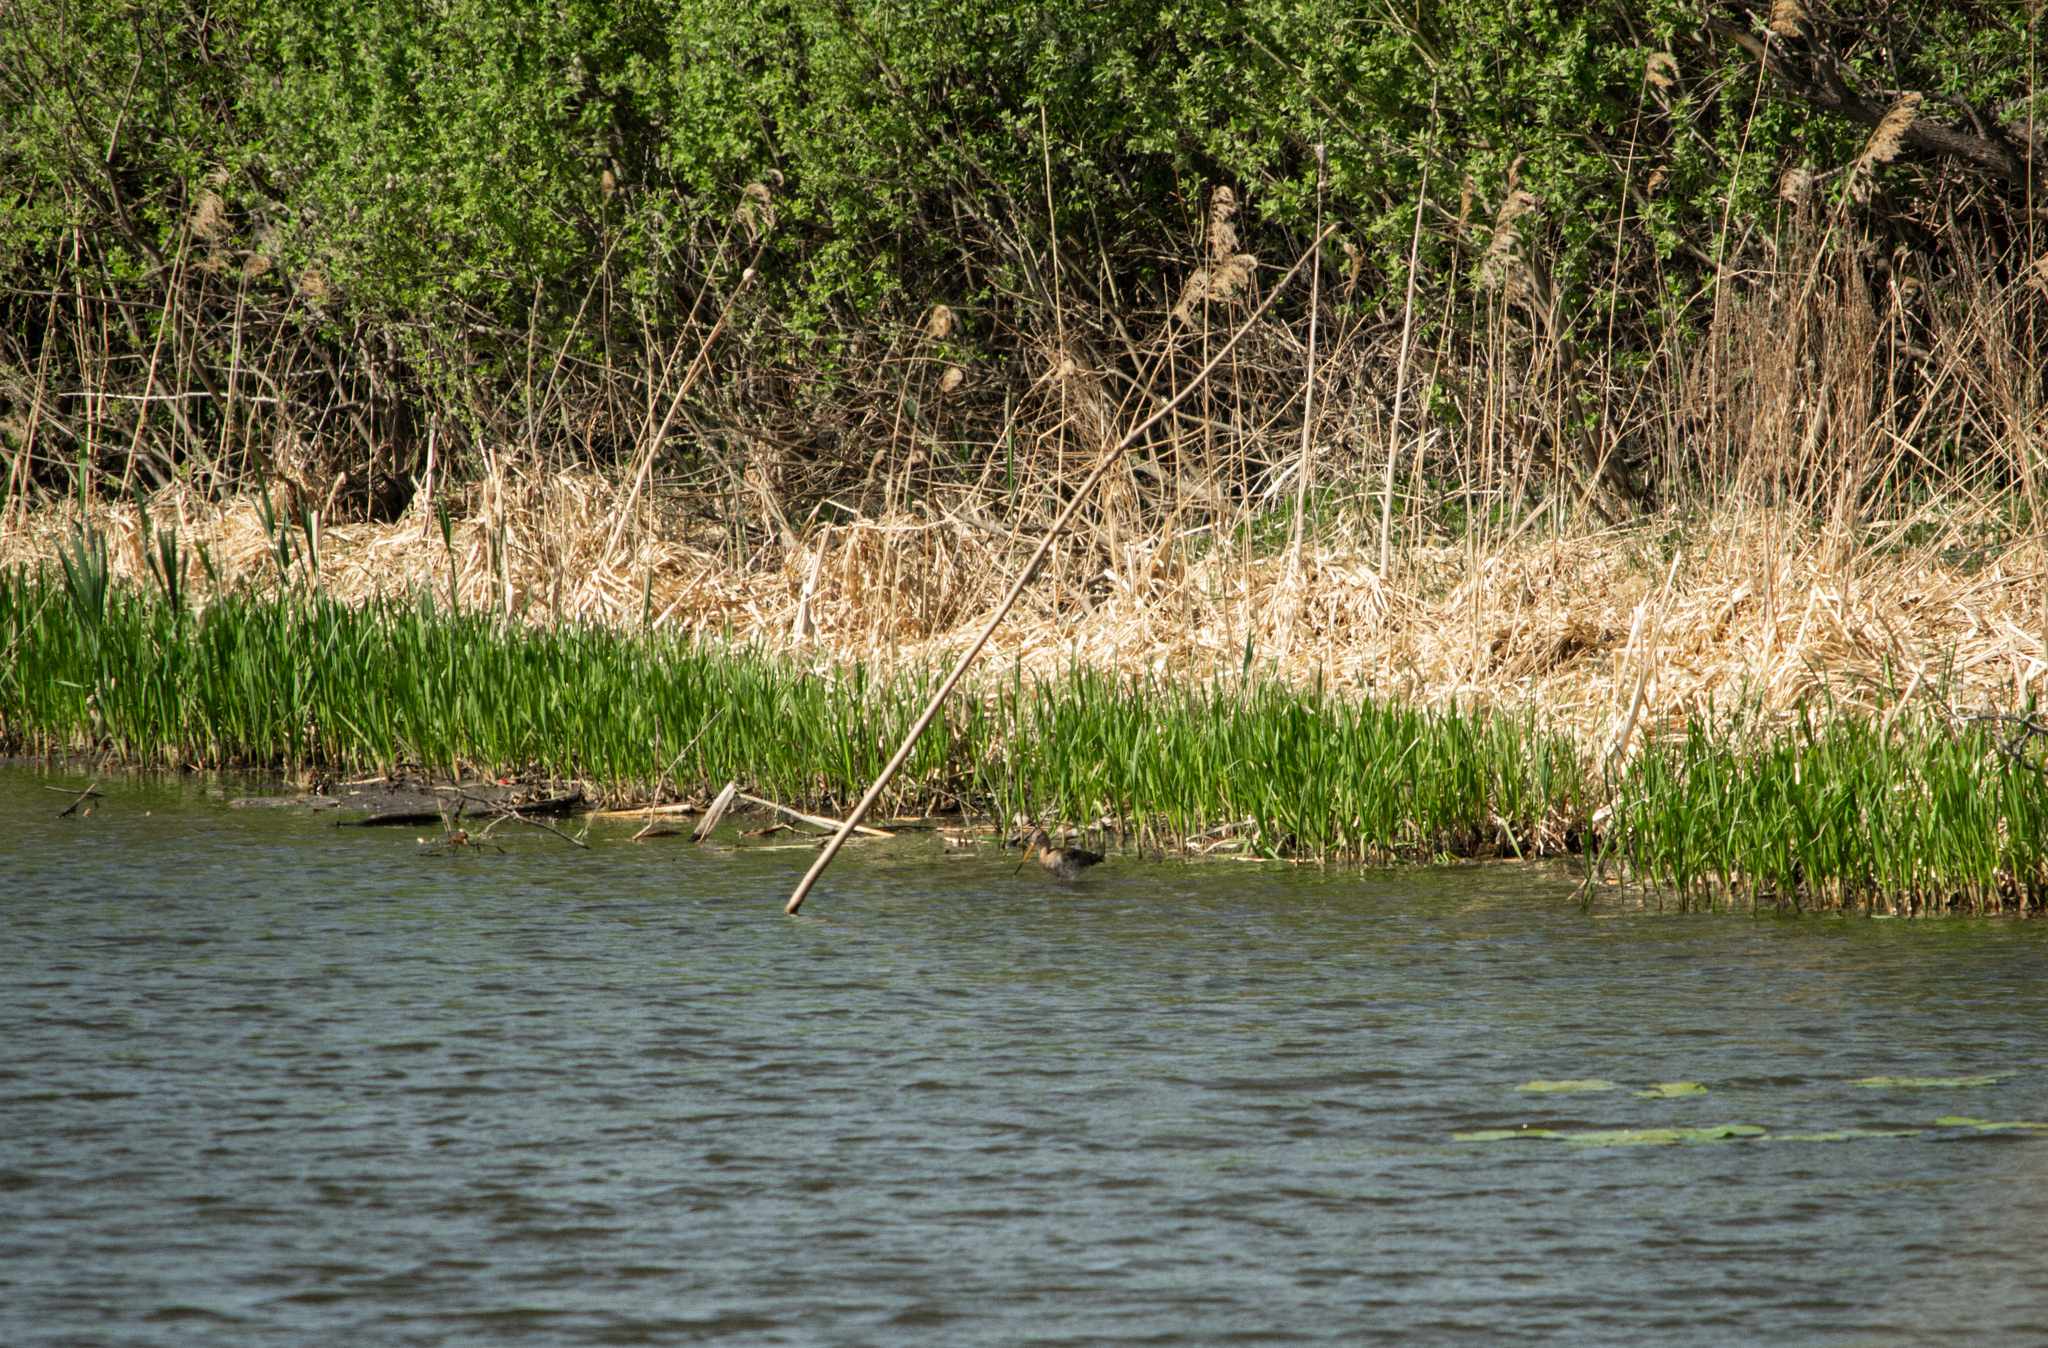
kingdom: Animalia
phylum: Chordata
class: Aves
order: Charadriiformes
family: Scolopacidae
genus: Limosa
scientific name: Limosa limosa
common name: Black-tailed godwit
